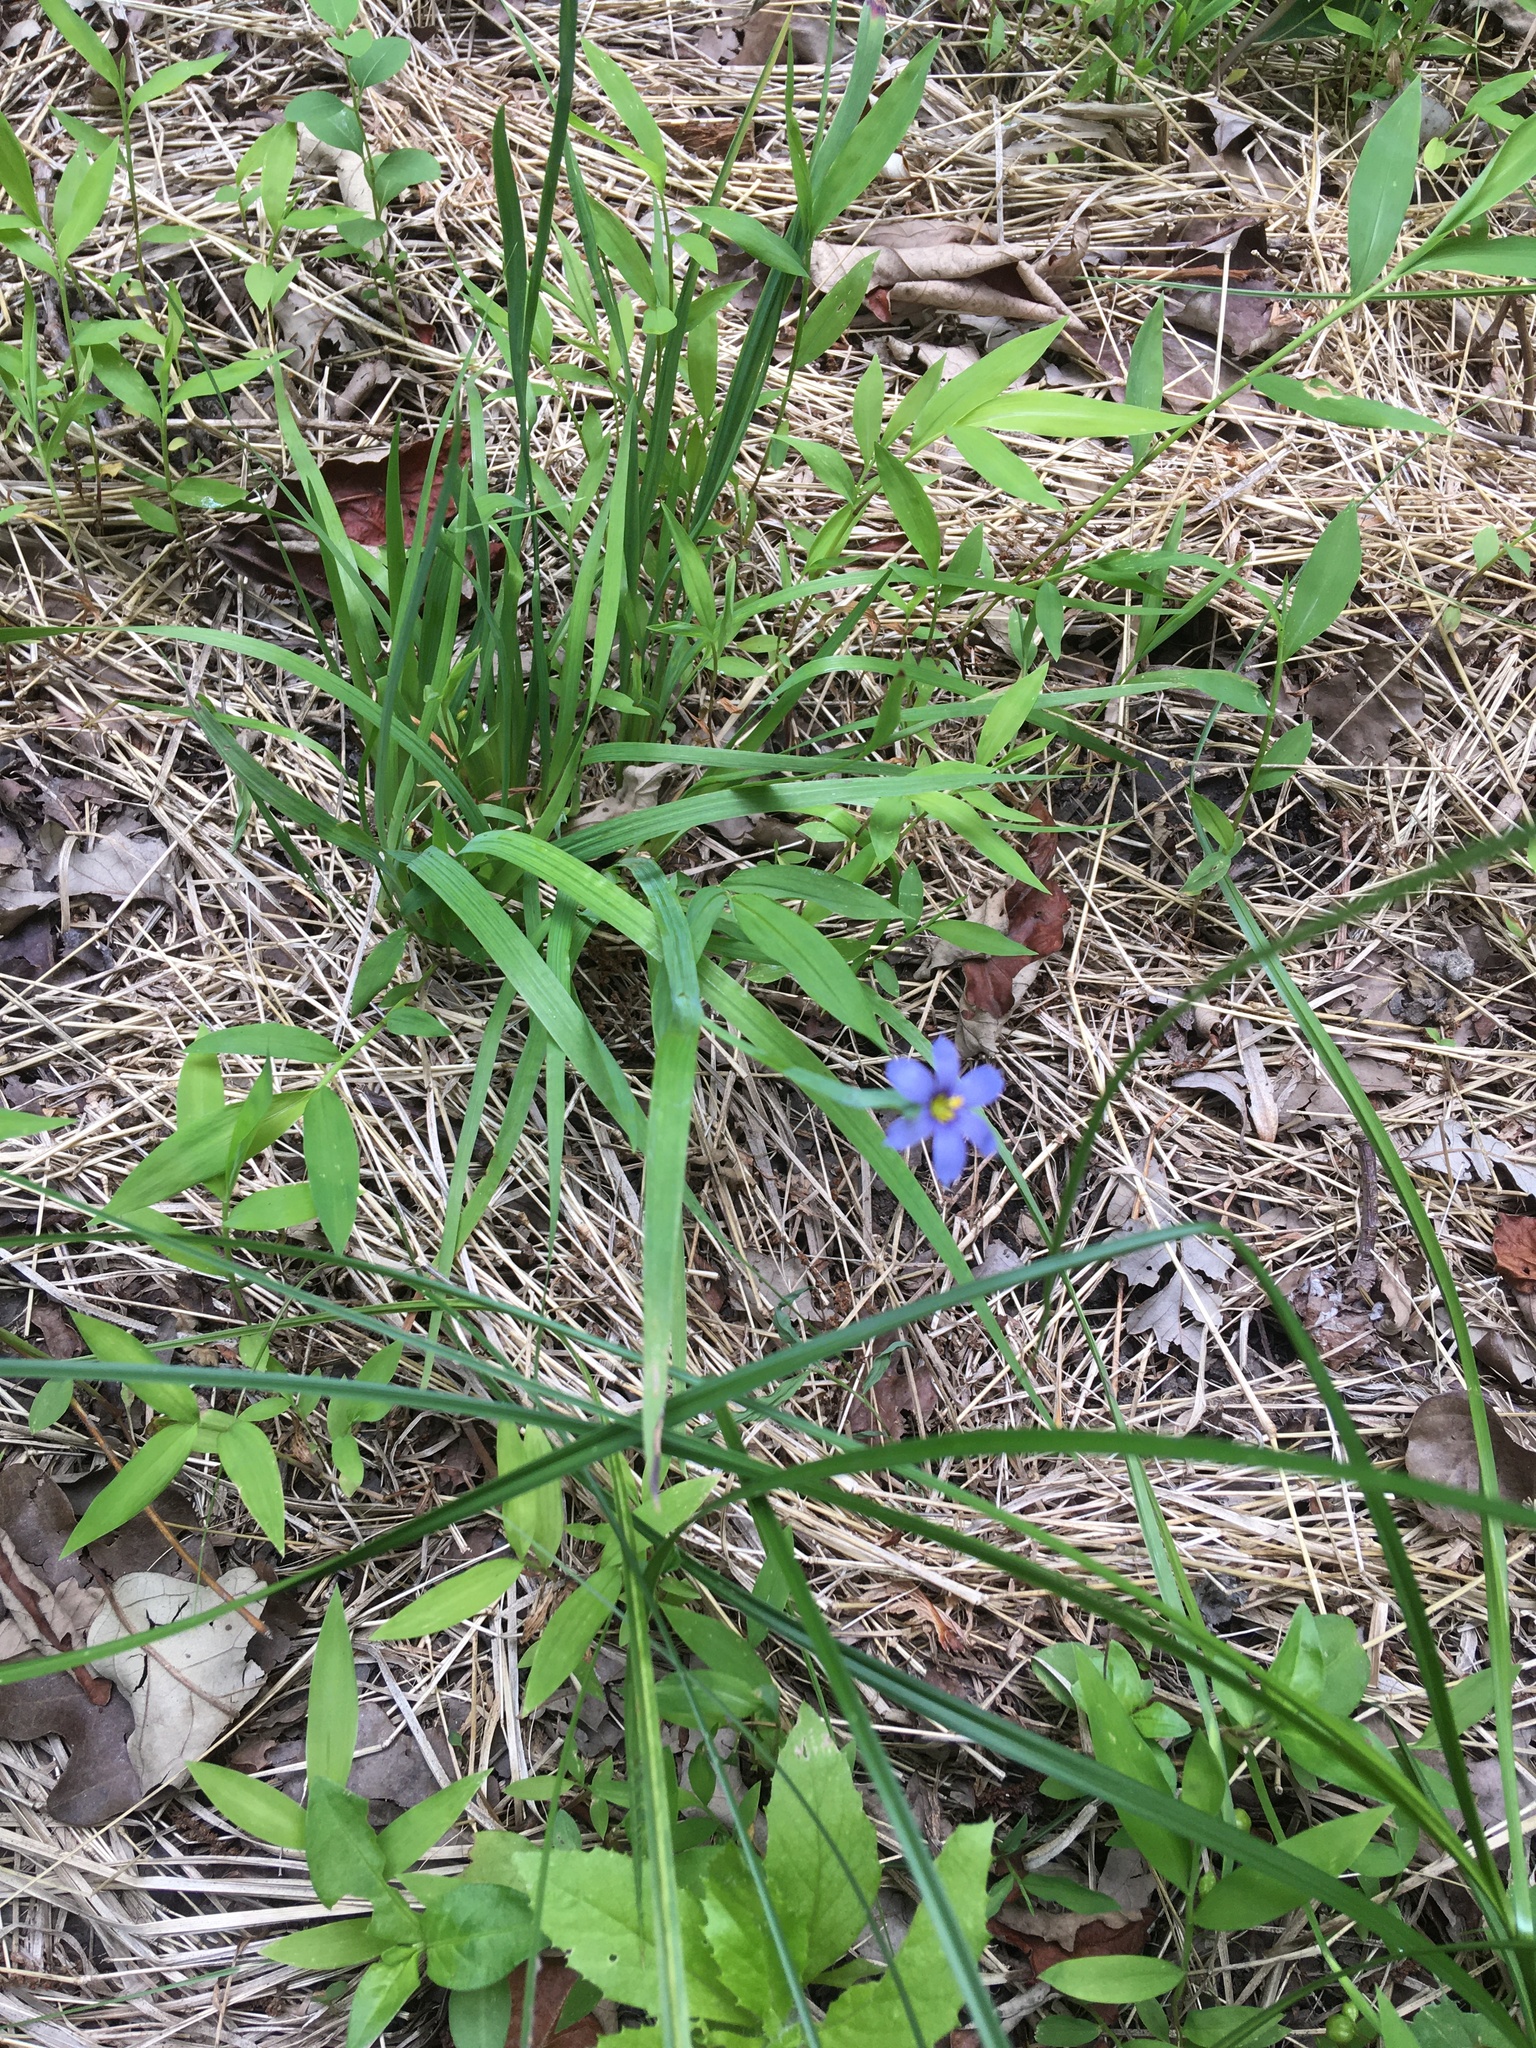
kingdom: Plantae
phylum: Tracheophyta
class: Liliopsida
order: Asparagales
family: Iridaceae
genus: Sisyrinchium
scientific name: Sisyrinchium angustifolium
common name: Narrow-leaf blue-eyed-grass
